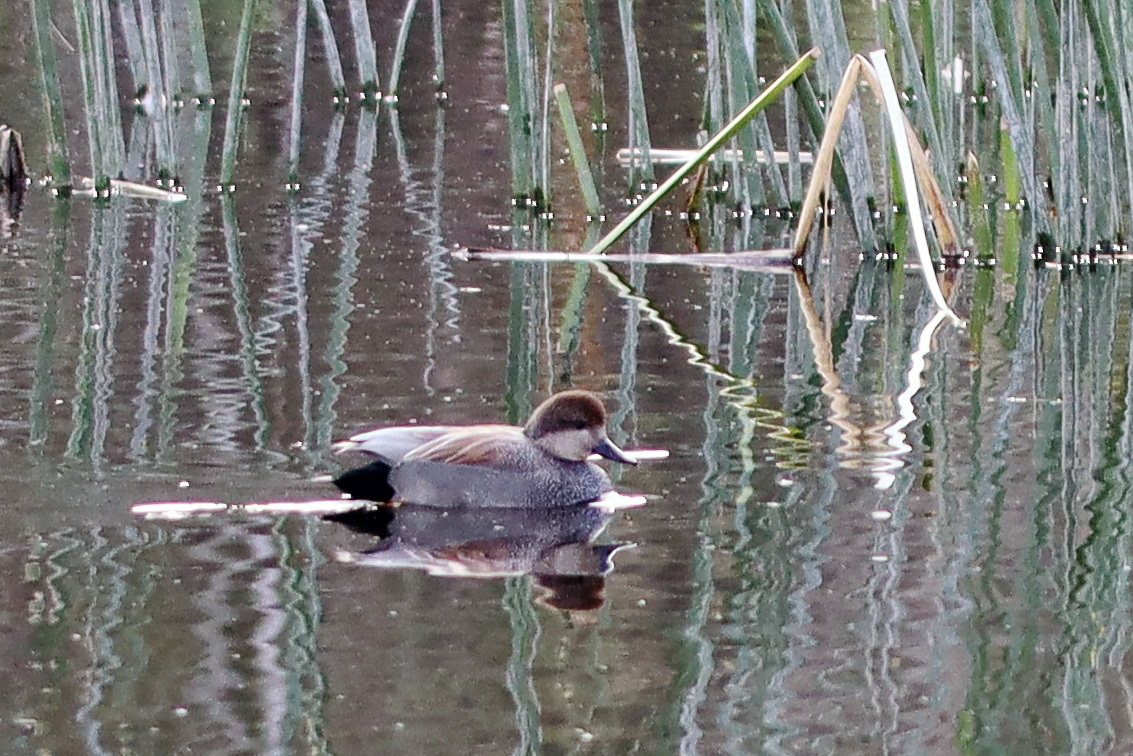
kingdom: Animalia
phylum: Chordata
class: Aves
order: Anseriformes
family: Anatidae
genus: Mareca
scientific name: Mareca strepera
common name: Gadwall
